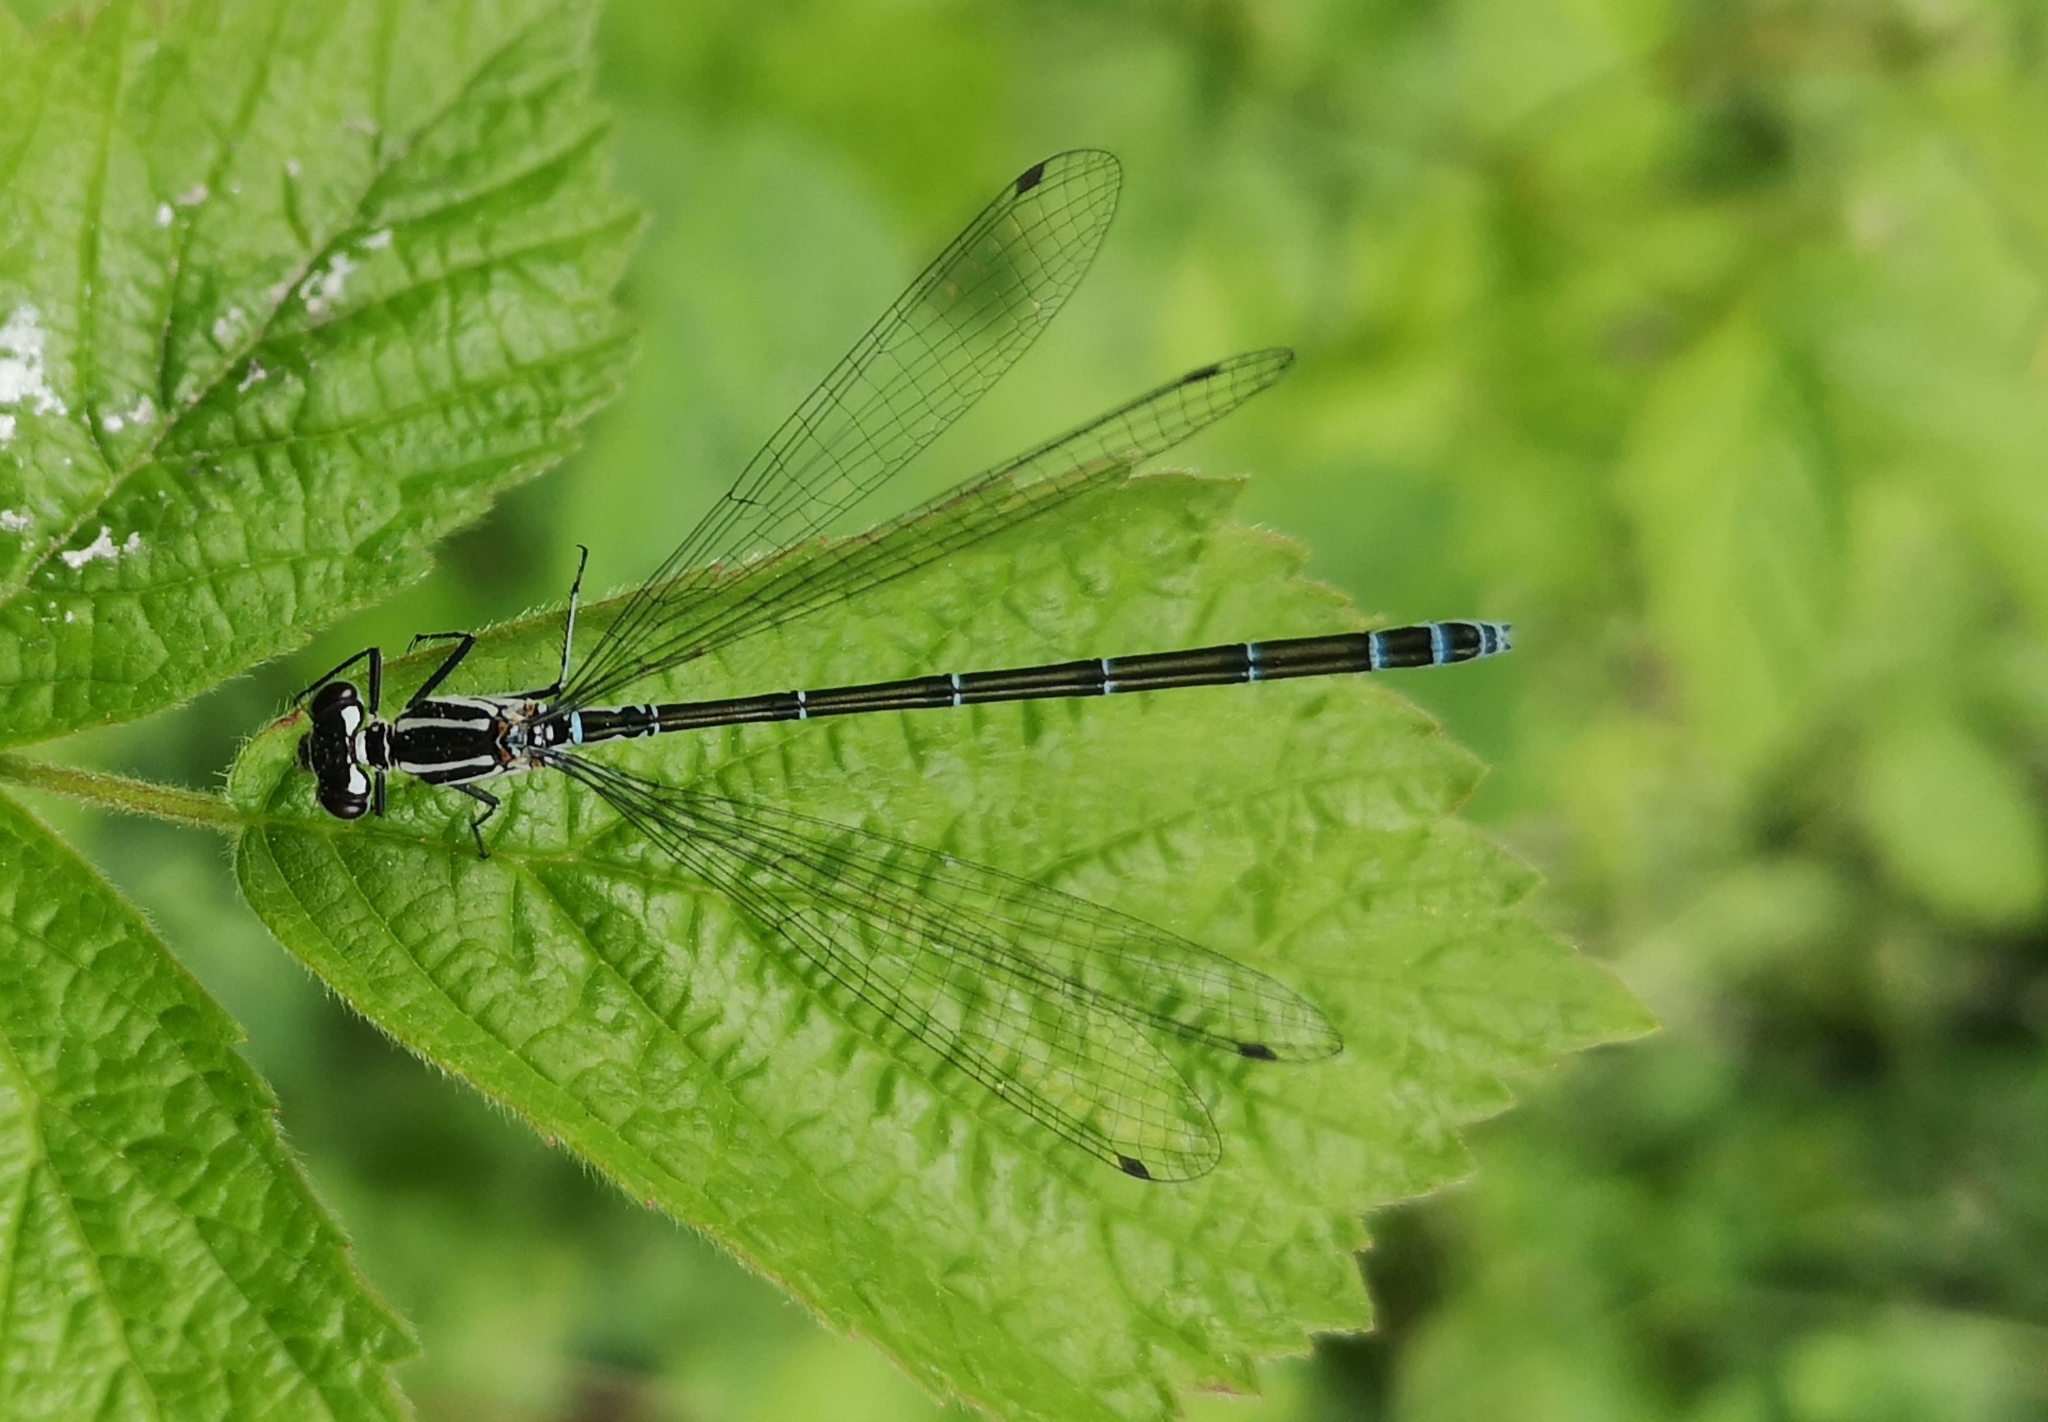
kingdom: Animalia
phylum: Arthropoda
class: Insecta
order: Odonata
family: Coenagrionidae
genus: Coenagrion
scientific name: Coenagrion puella
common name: Azure damselfly
